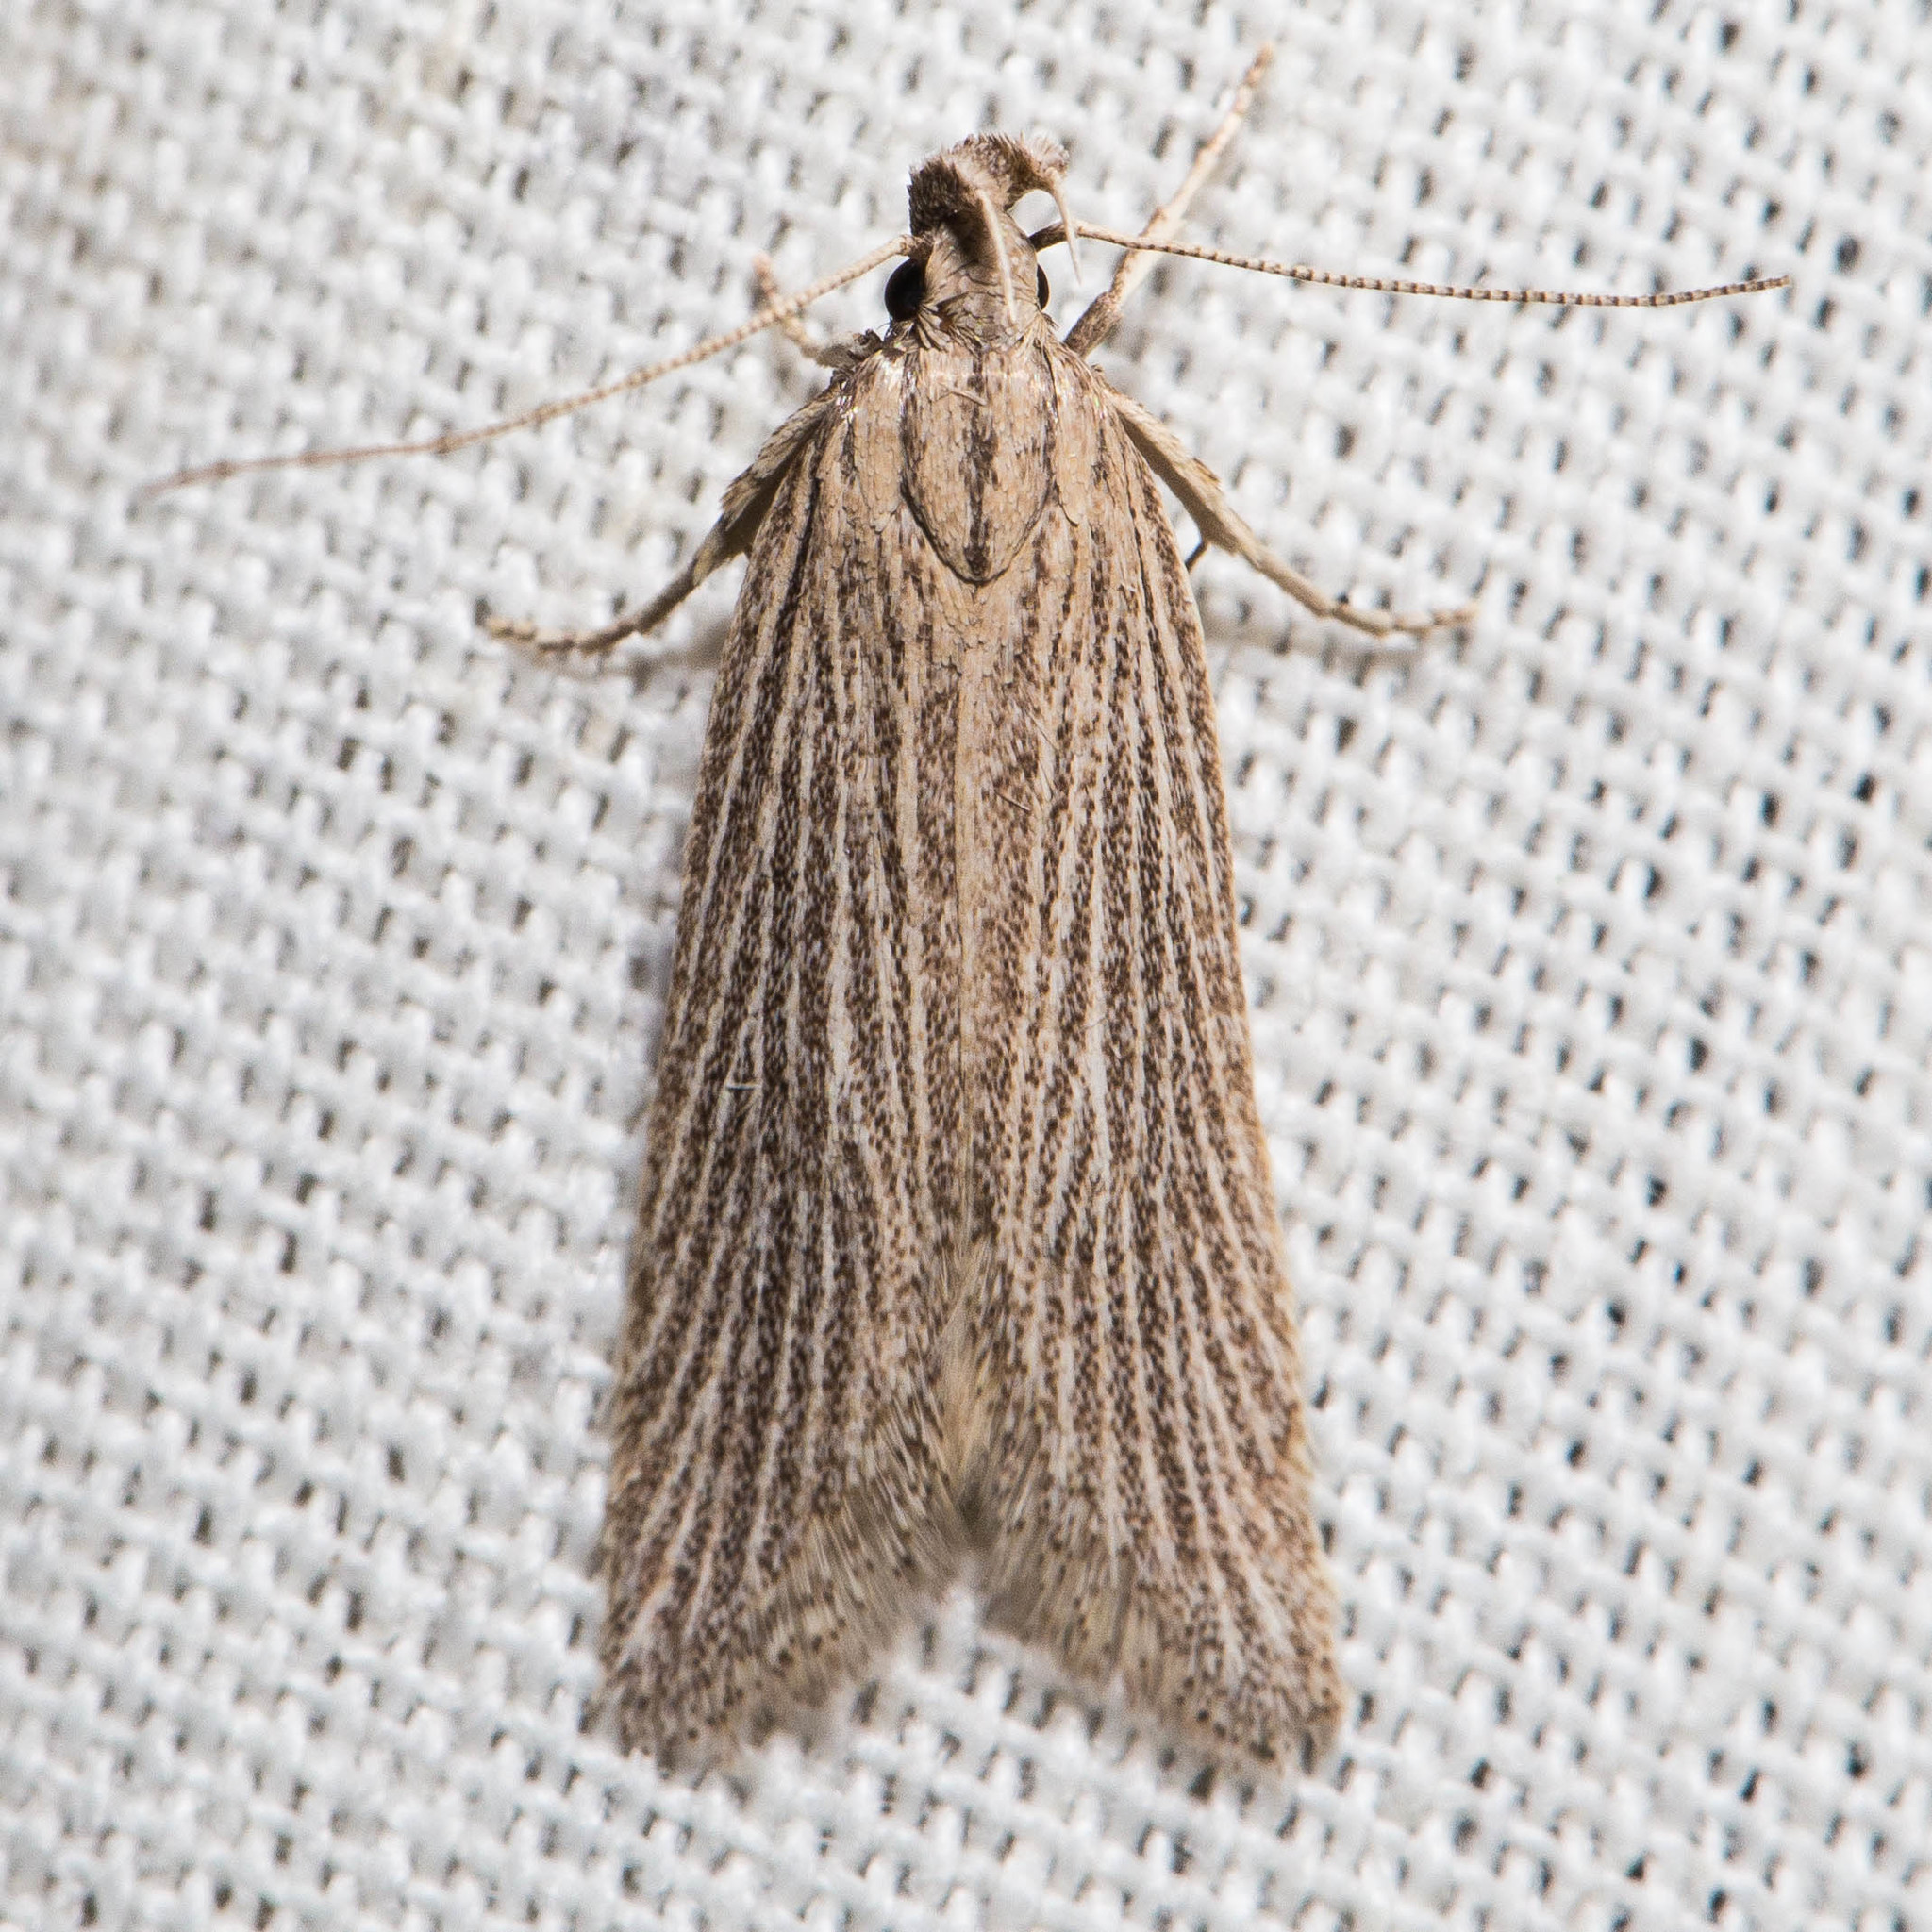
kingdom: Animalia
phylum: Arthropoda
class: Insecta
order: Lepidoptera
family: Gelechiidae
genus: Chionodes
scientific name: Chionodes figurella
